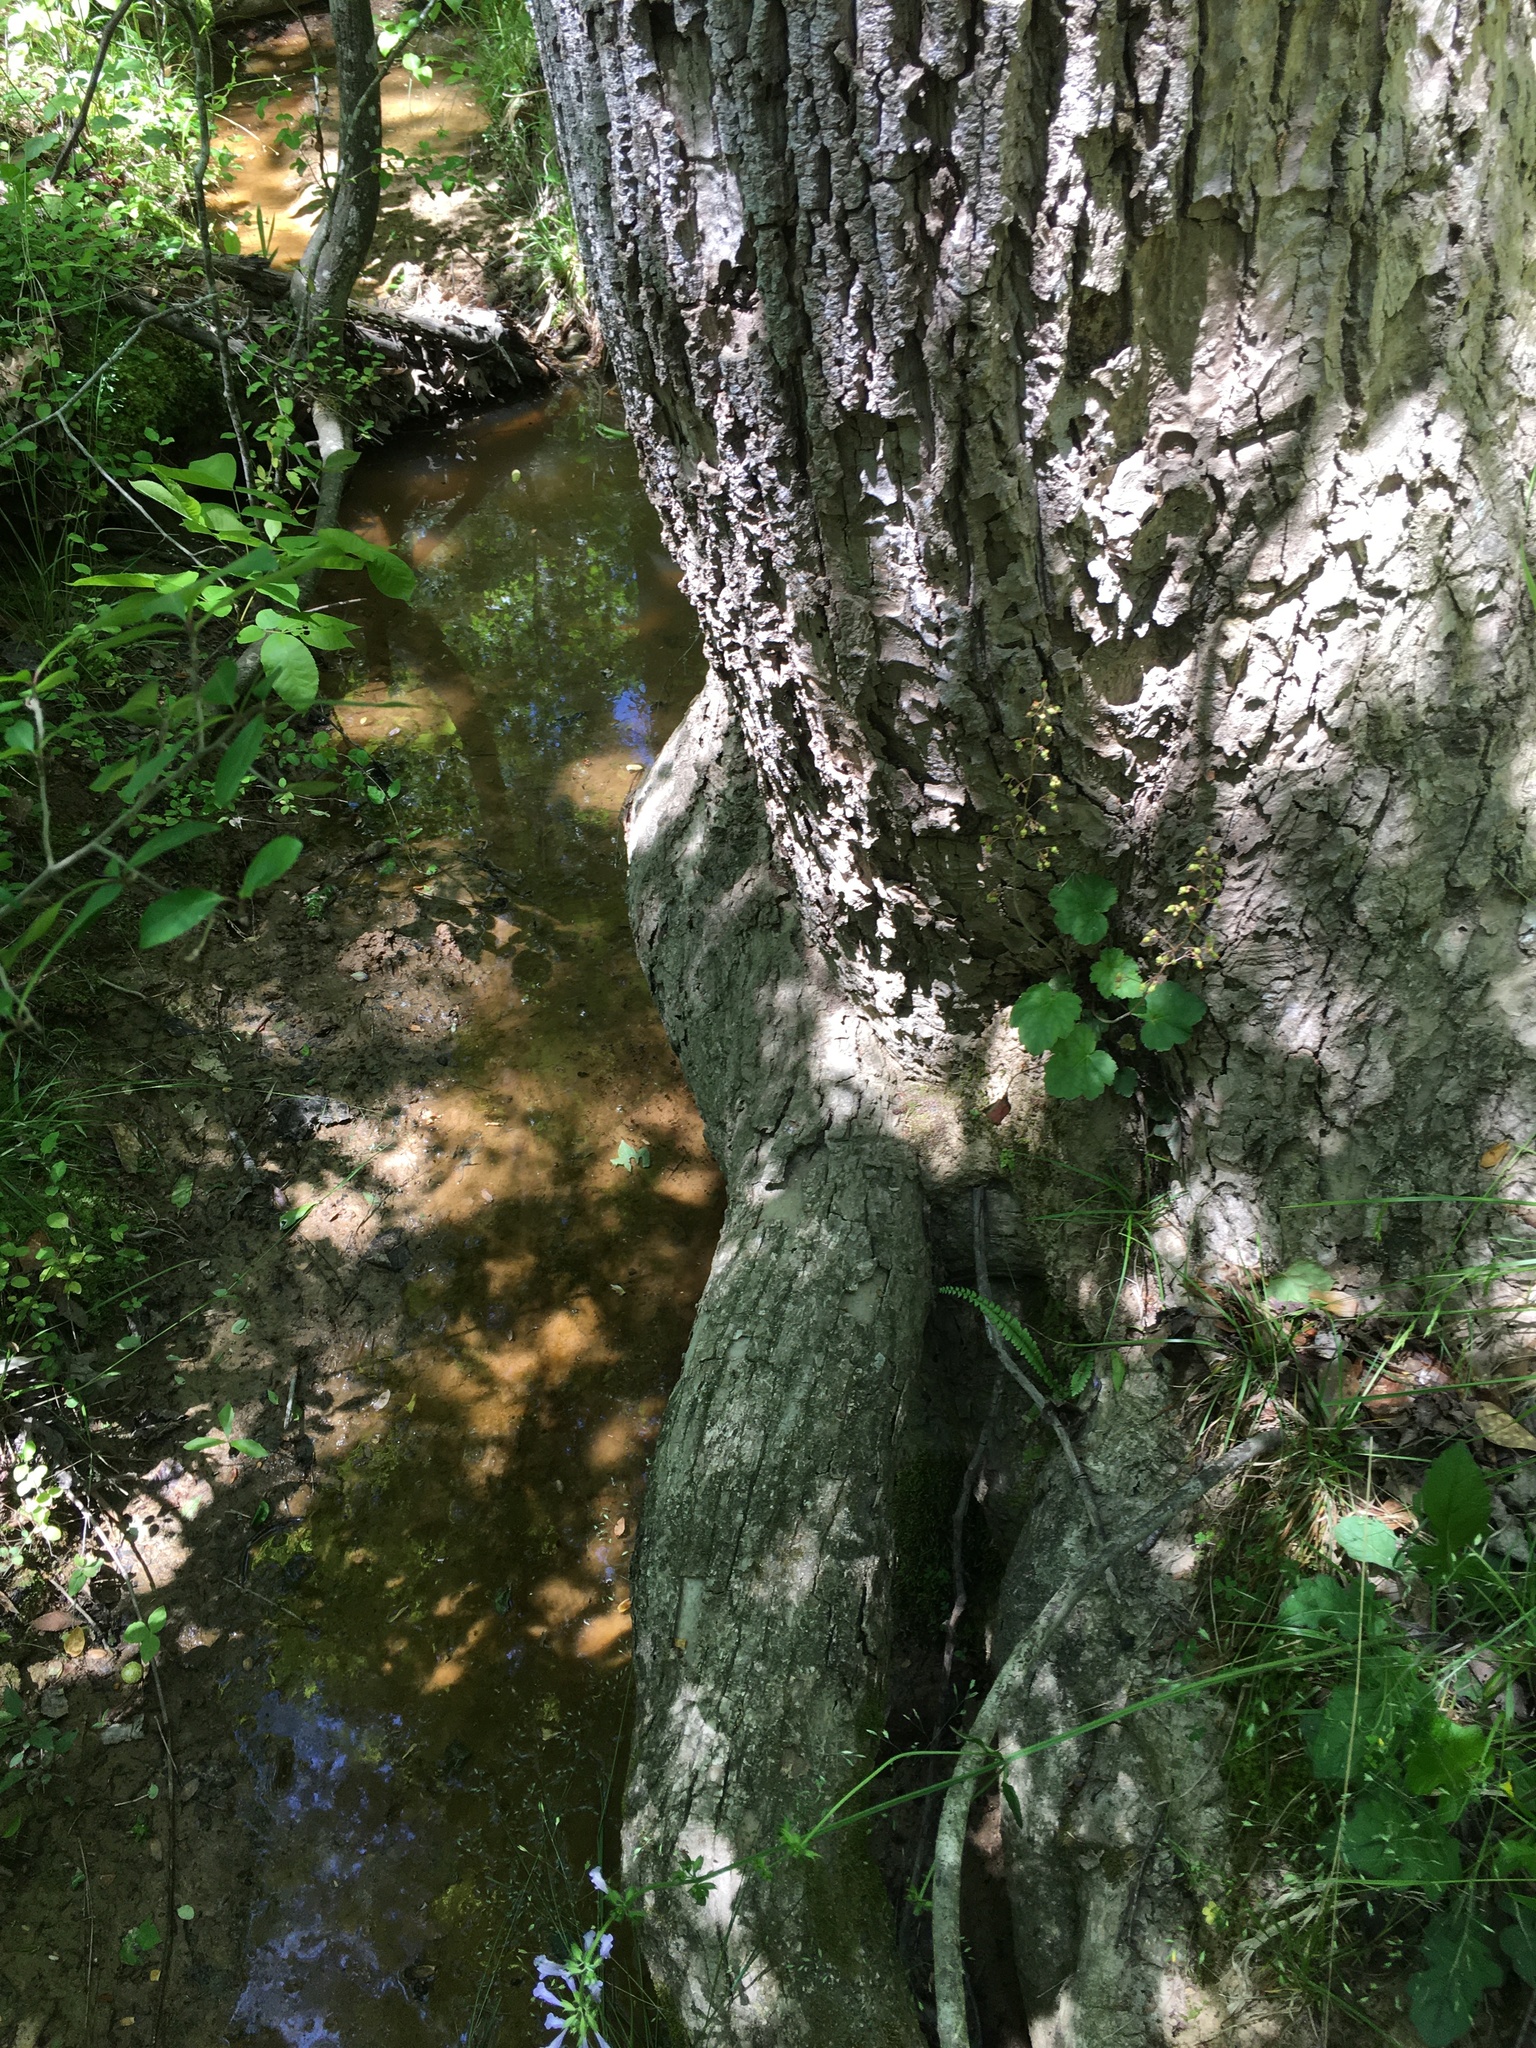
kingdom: Plantae
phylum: Tracheophyta
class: Magnoliopsida
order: Saxifragales
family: Saxifragaceae
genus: Heuchera
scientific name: Heuchera caroliniana
